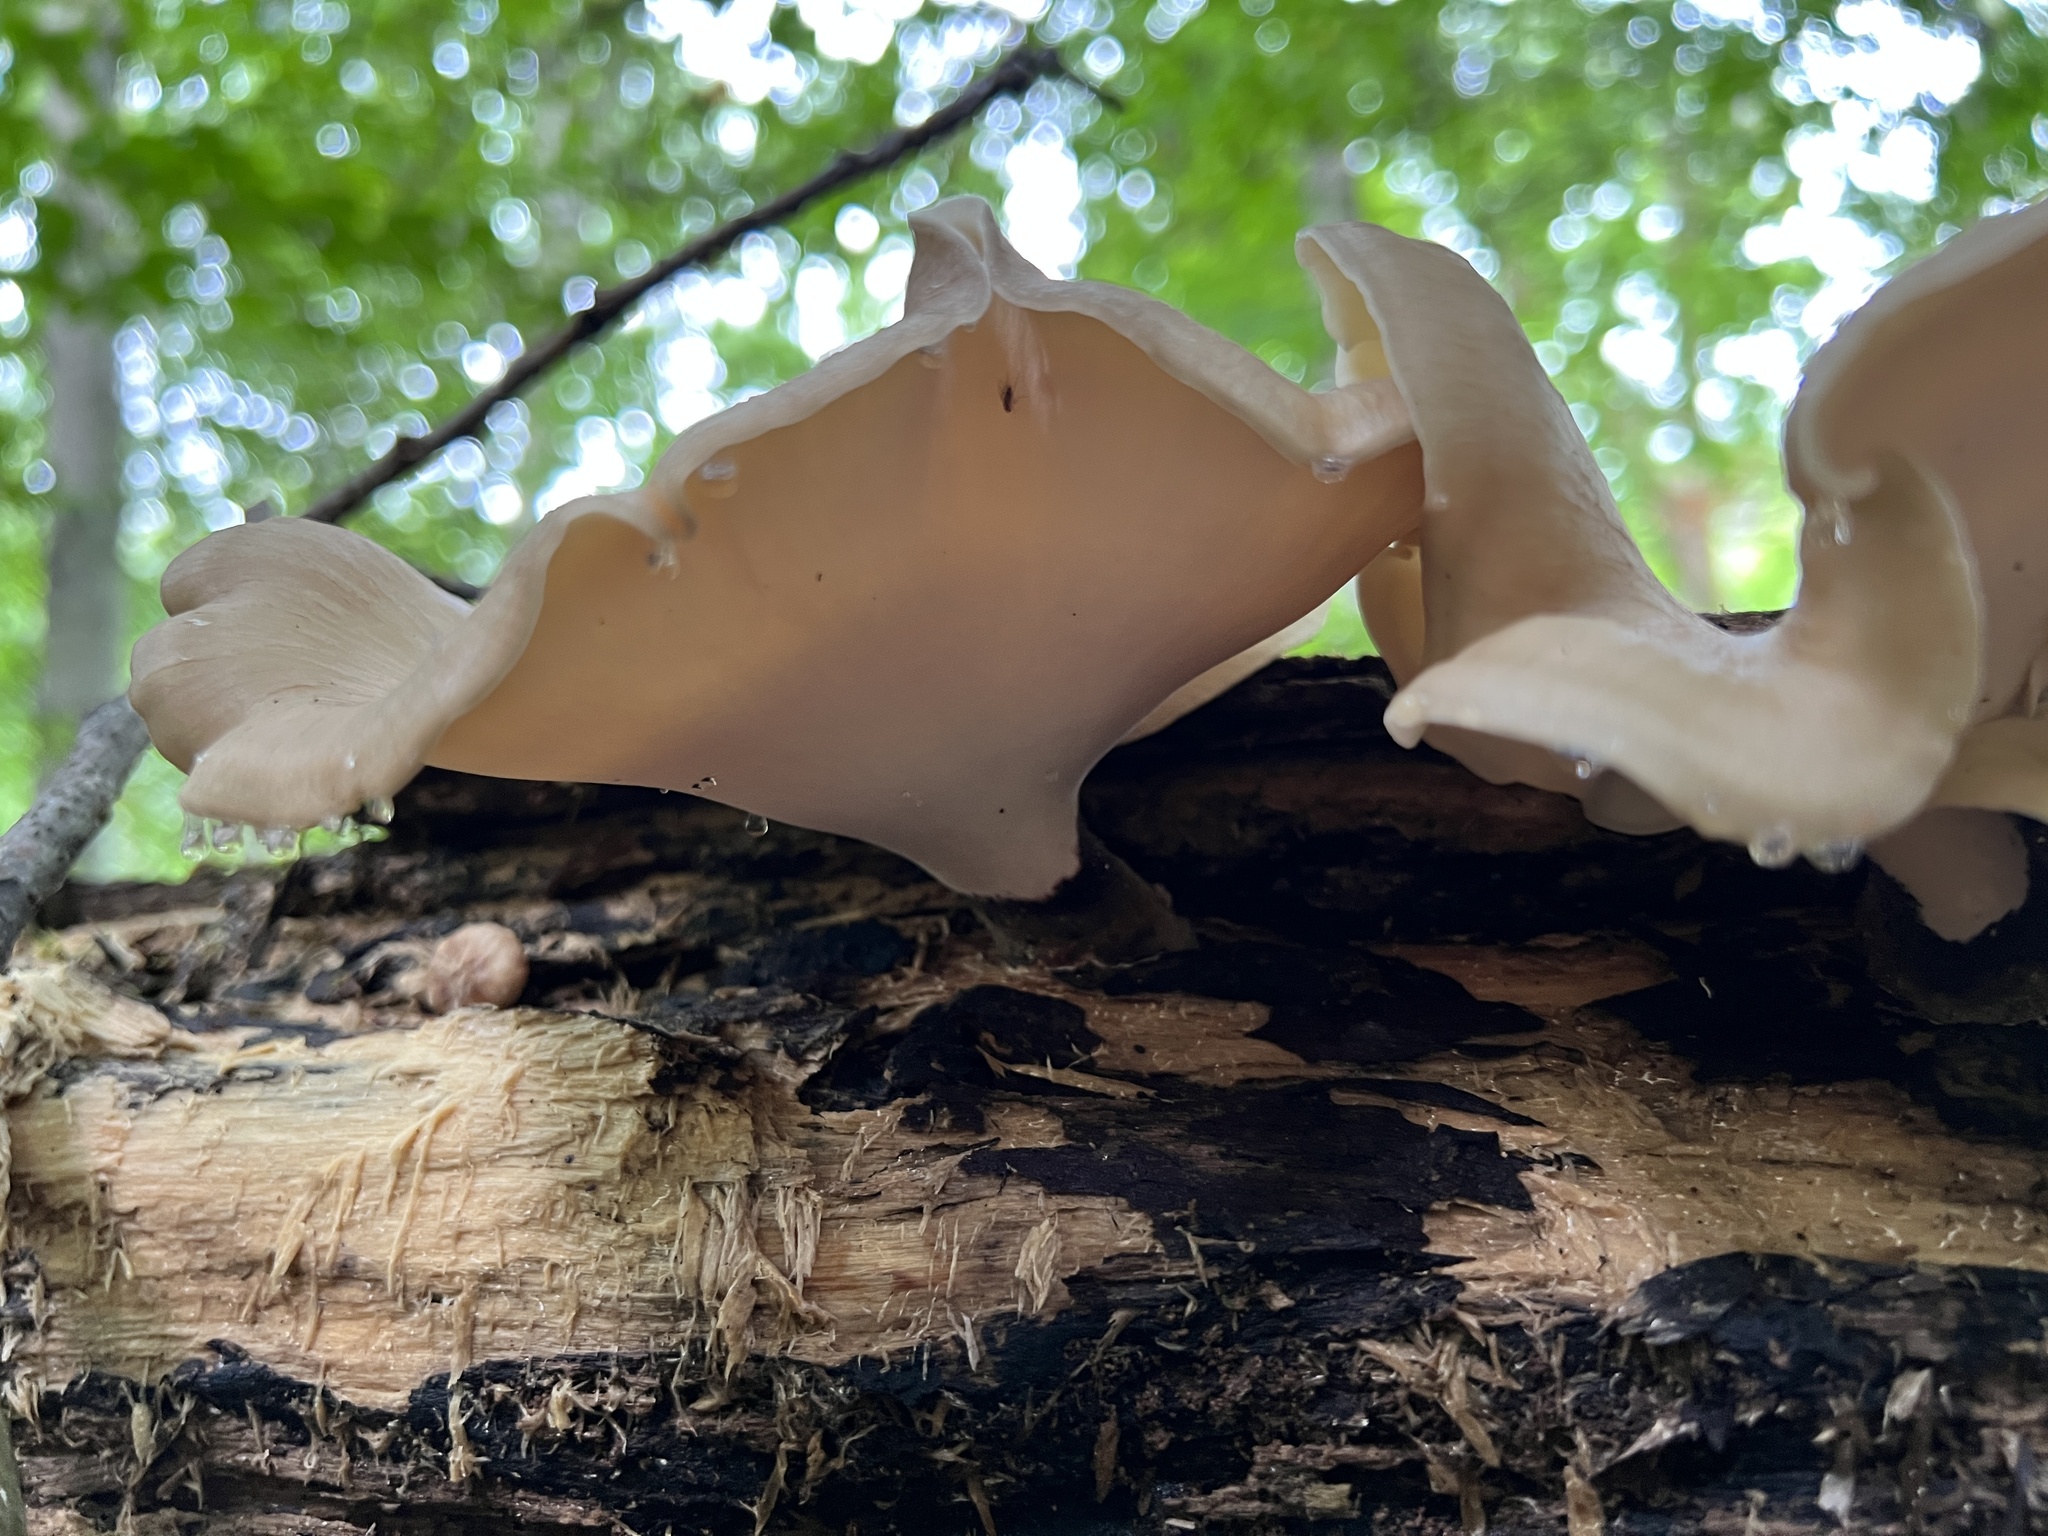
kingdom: Fungi
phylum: Basidiomycota
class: Agaricomycetes
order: Polyporales
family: Polyporaceae
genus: Picipes
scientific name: Picipes badius
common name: Bay polypore
